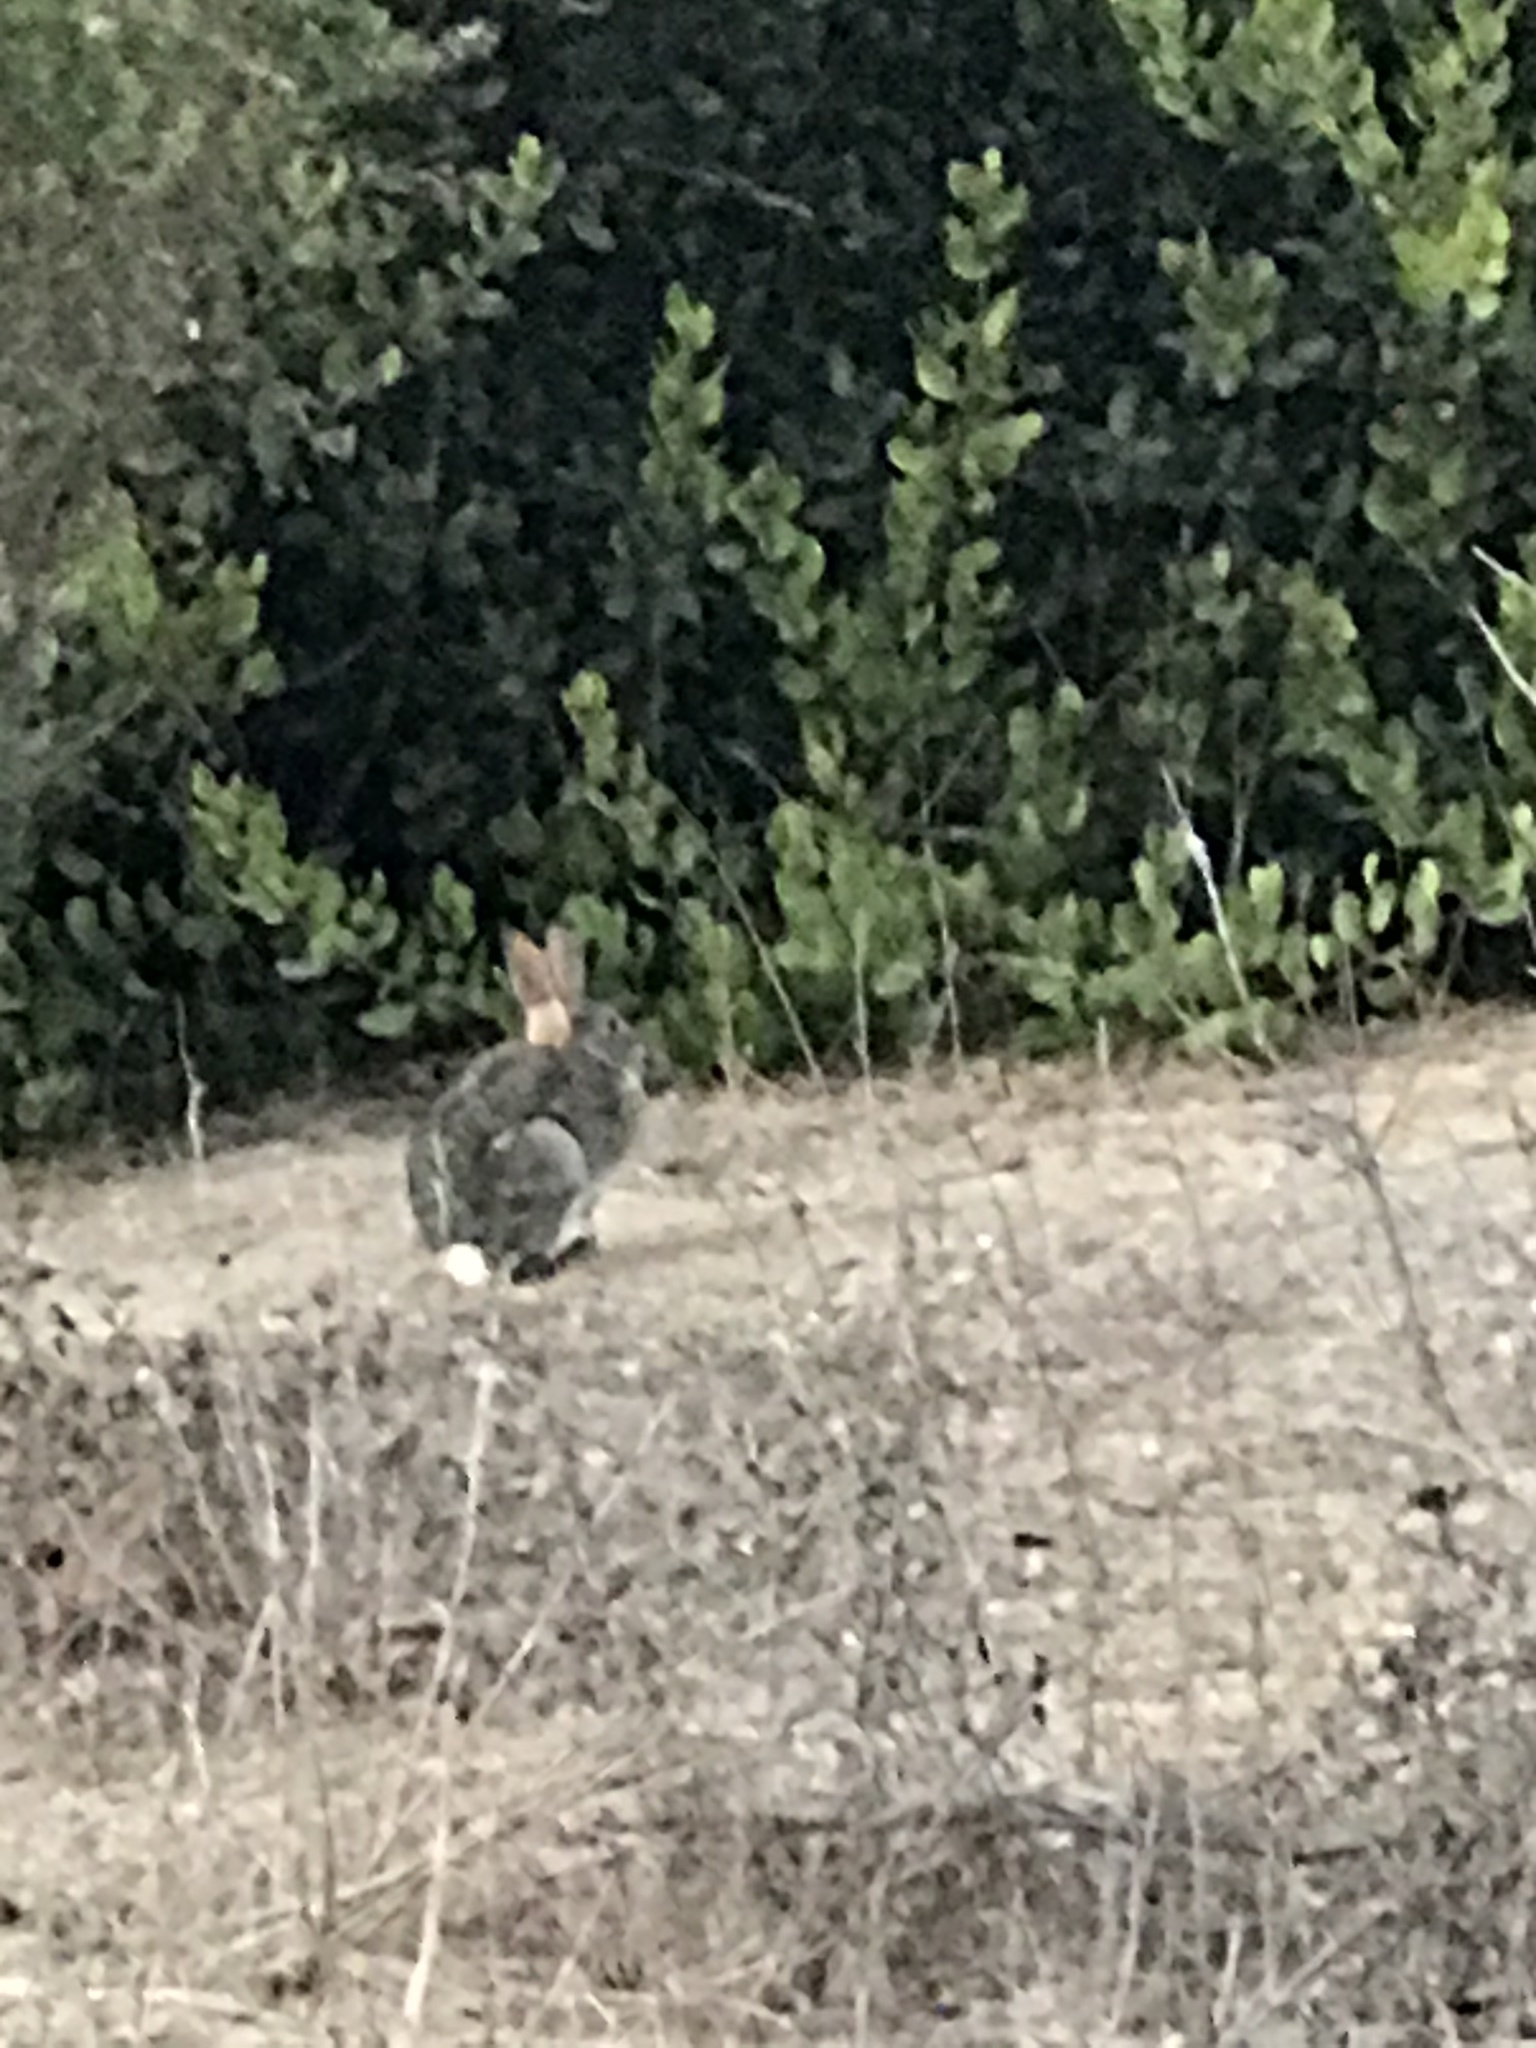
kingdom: Animalia
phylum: Chordata
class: Mammalia
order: Lagomorpha
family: Leporidae
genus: Sylvilagus
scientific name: Sylvilagus audubonii
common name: Desert cottontail
